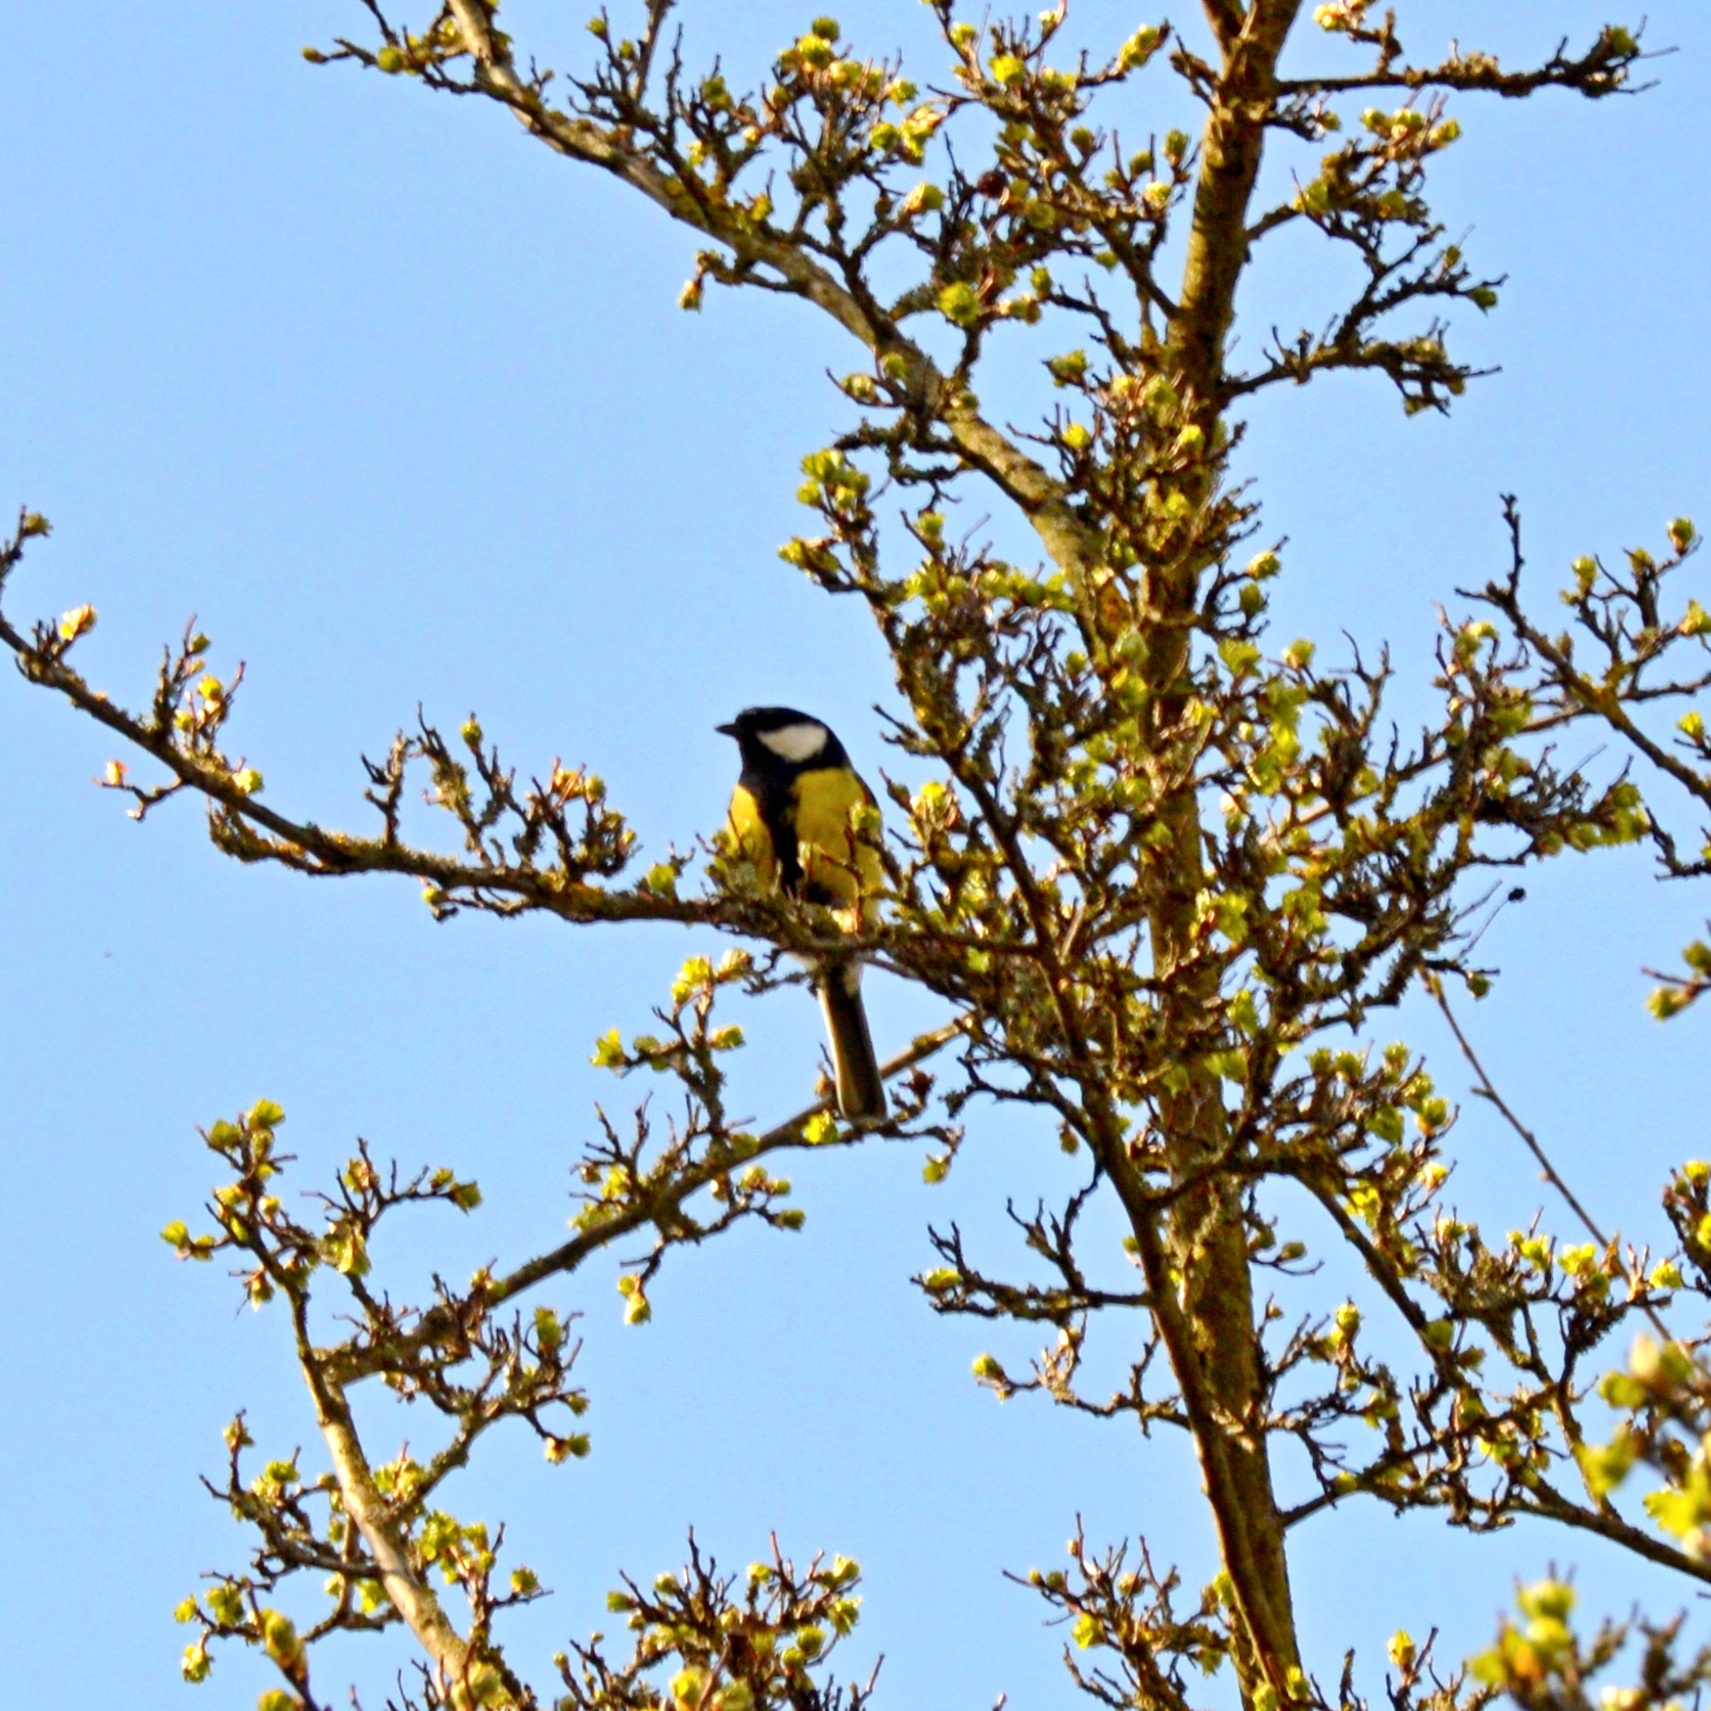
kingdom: Animalia
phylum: Chordata
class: Aves
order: Passeriformes
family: Paridae
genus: Parus
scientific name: Parus major
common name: Great tit
